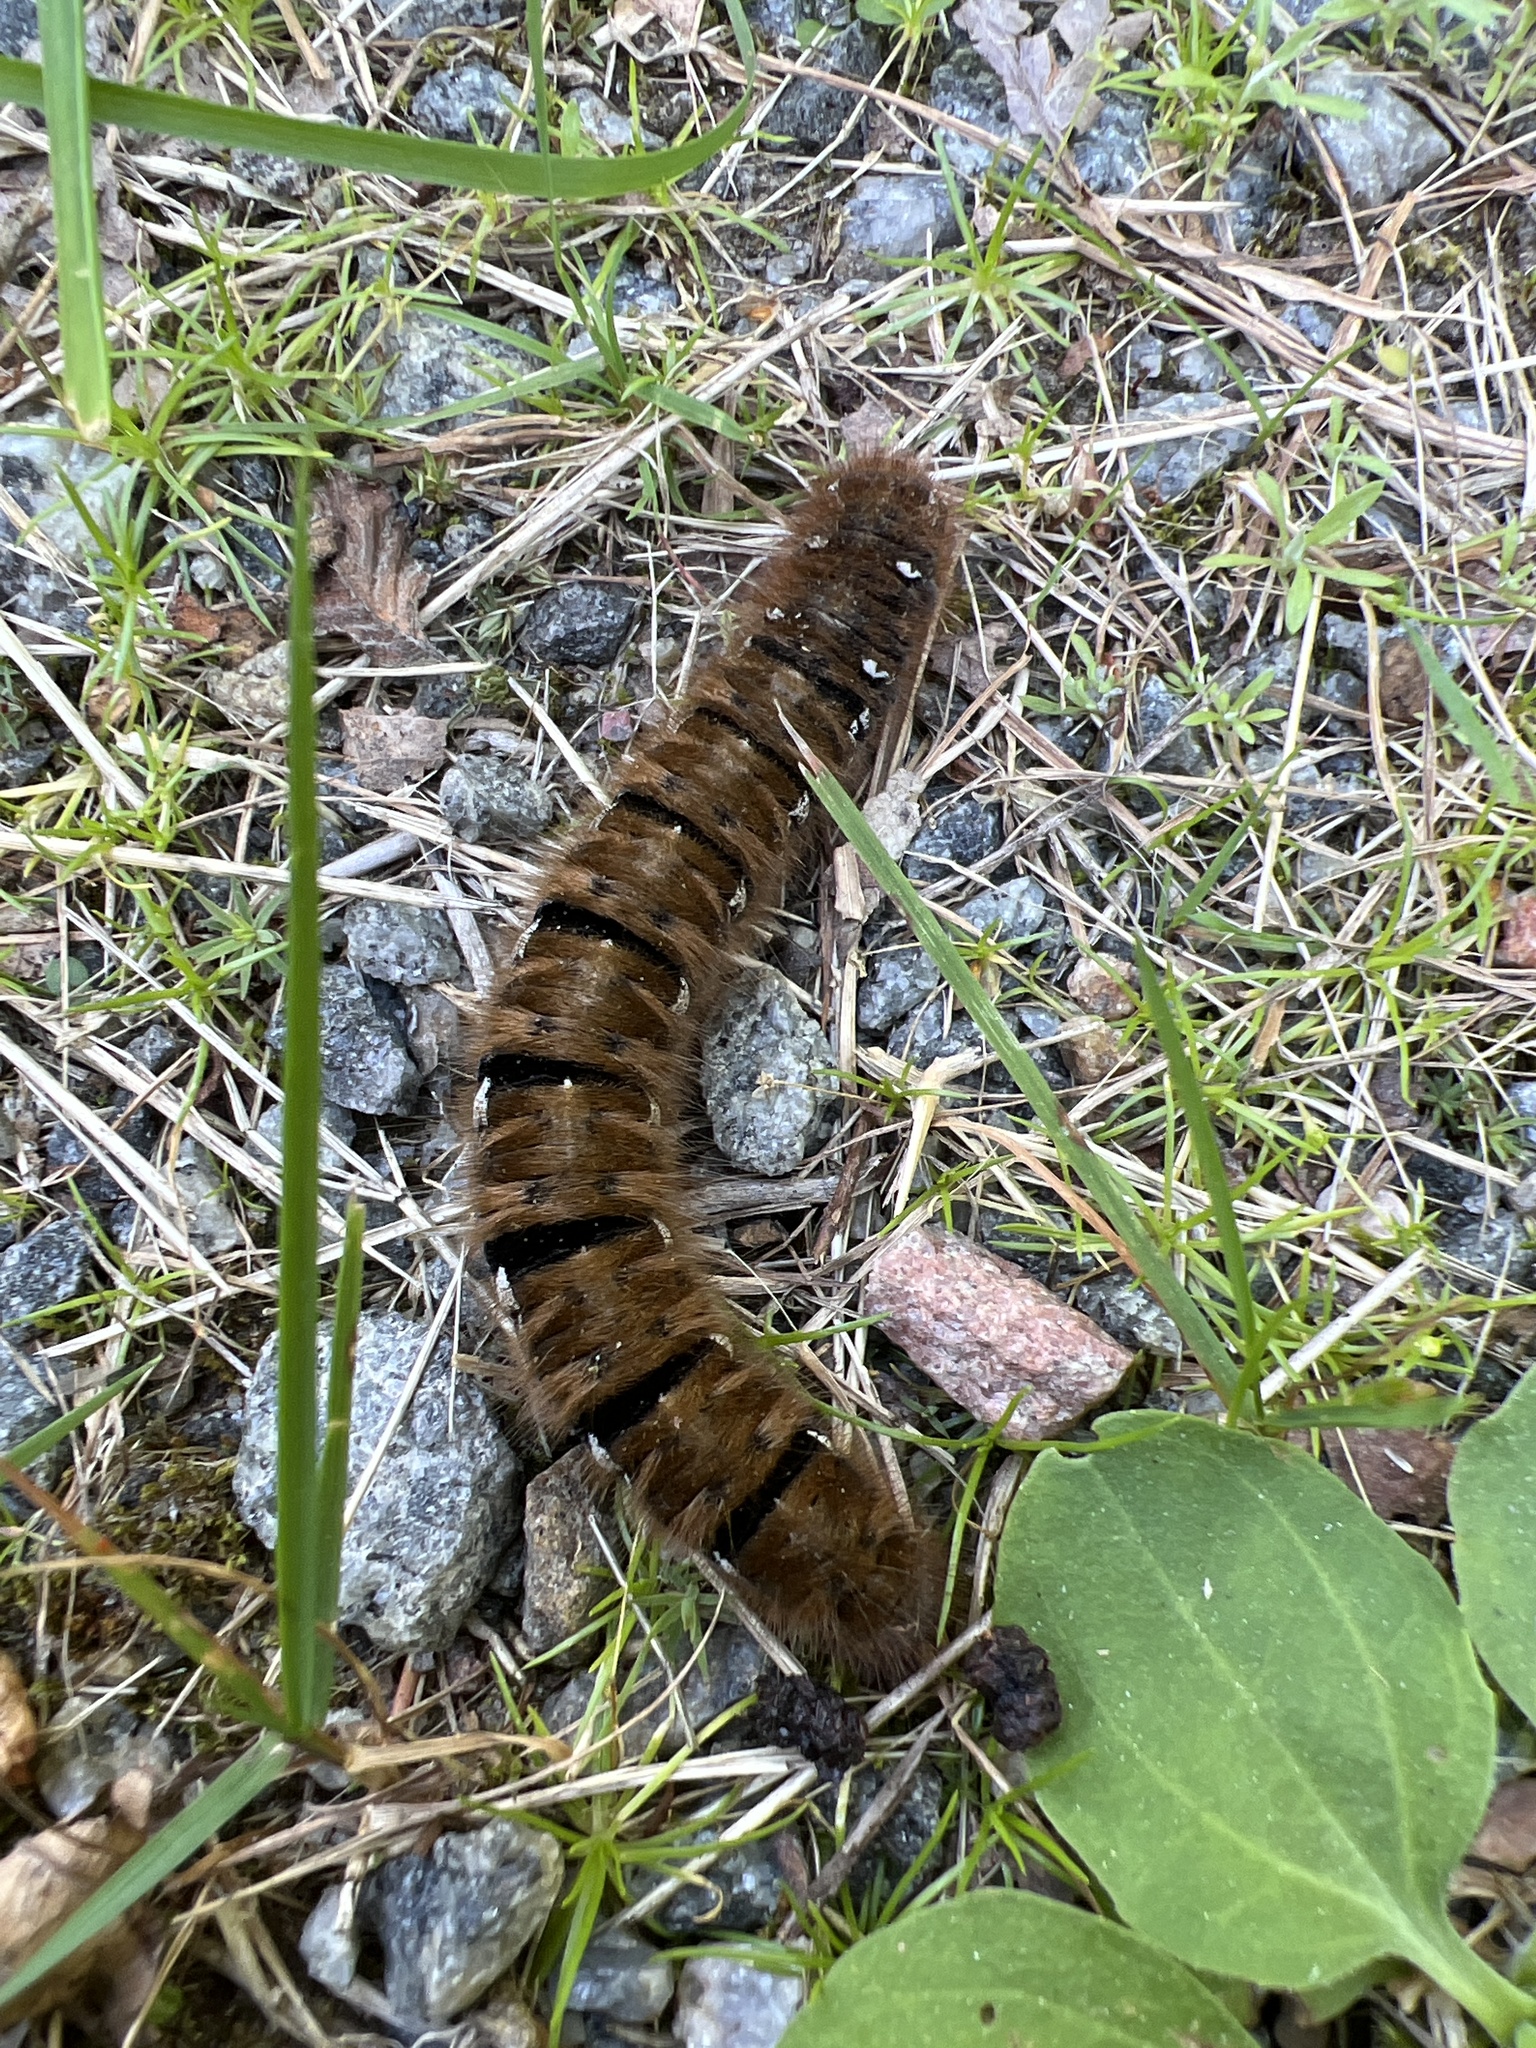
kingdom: Animalia
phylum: Arthropoda
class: Insecta
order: Lepidoptera
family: Lasiocampidae
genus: Lasiocampa
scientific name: Lasiocampa quercus
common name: Oak eggar
